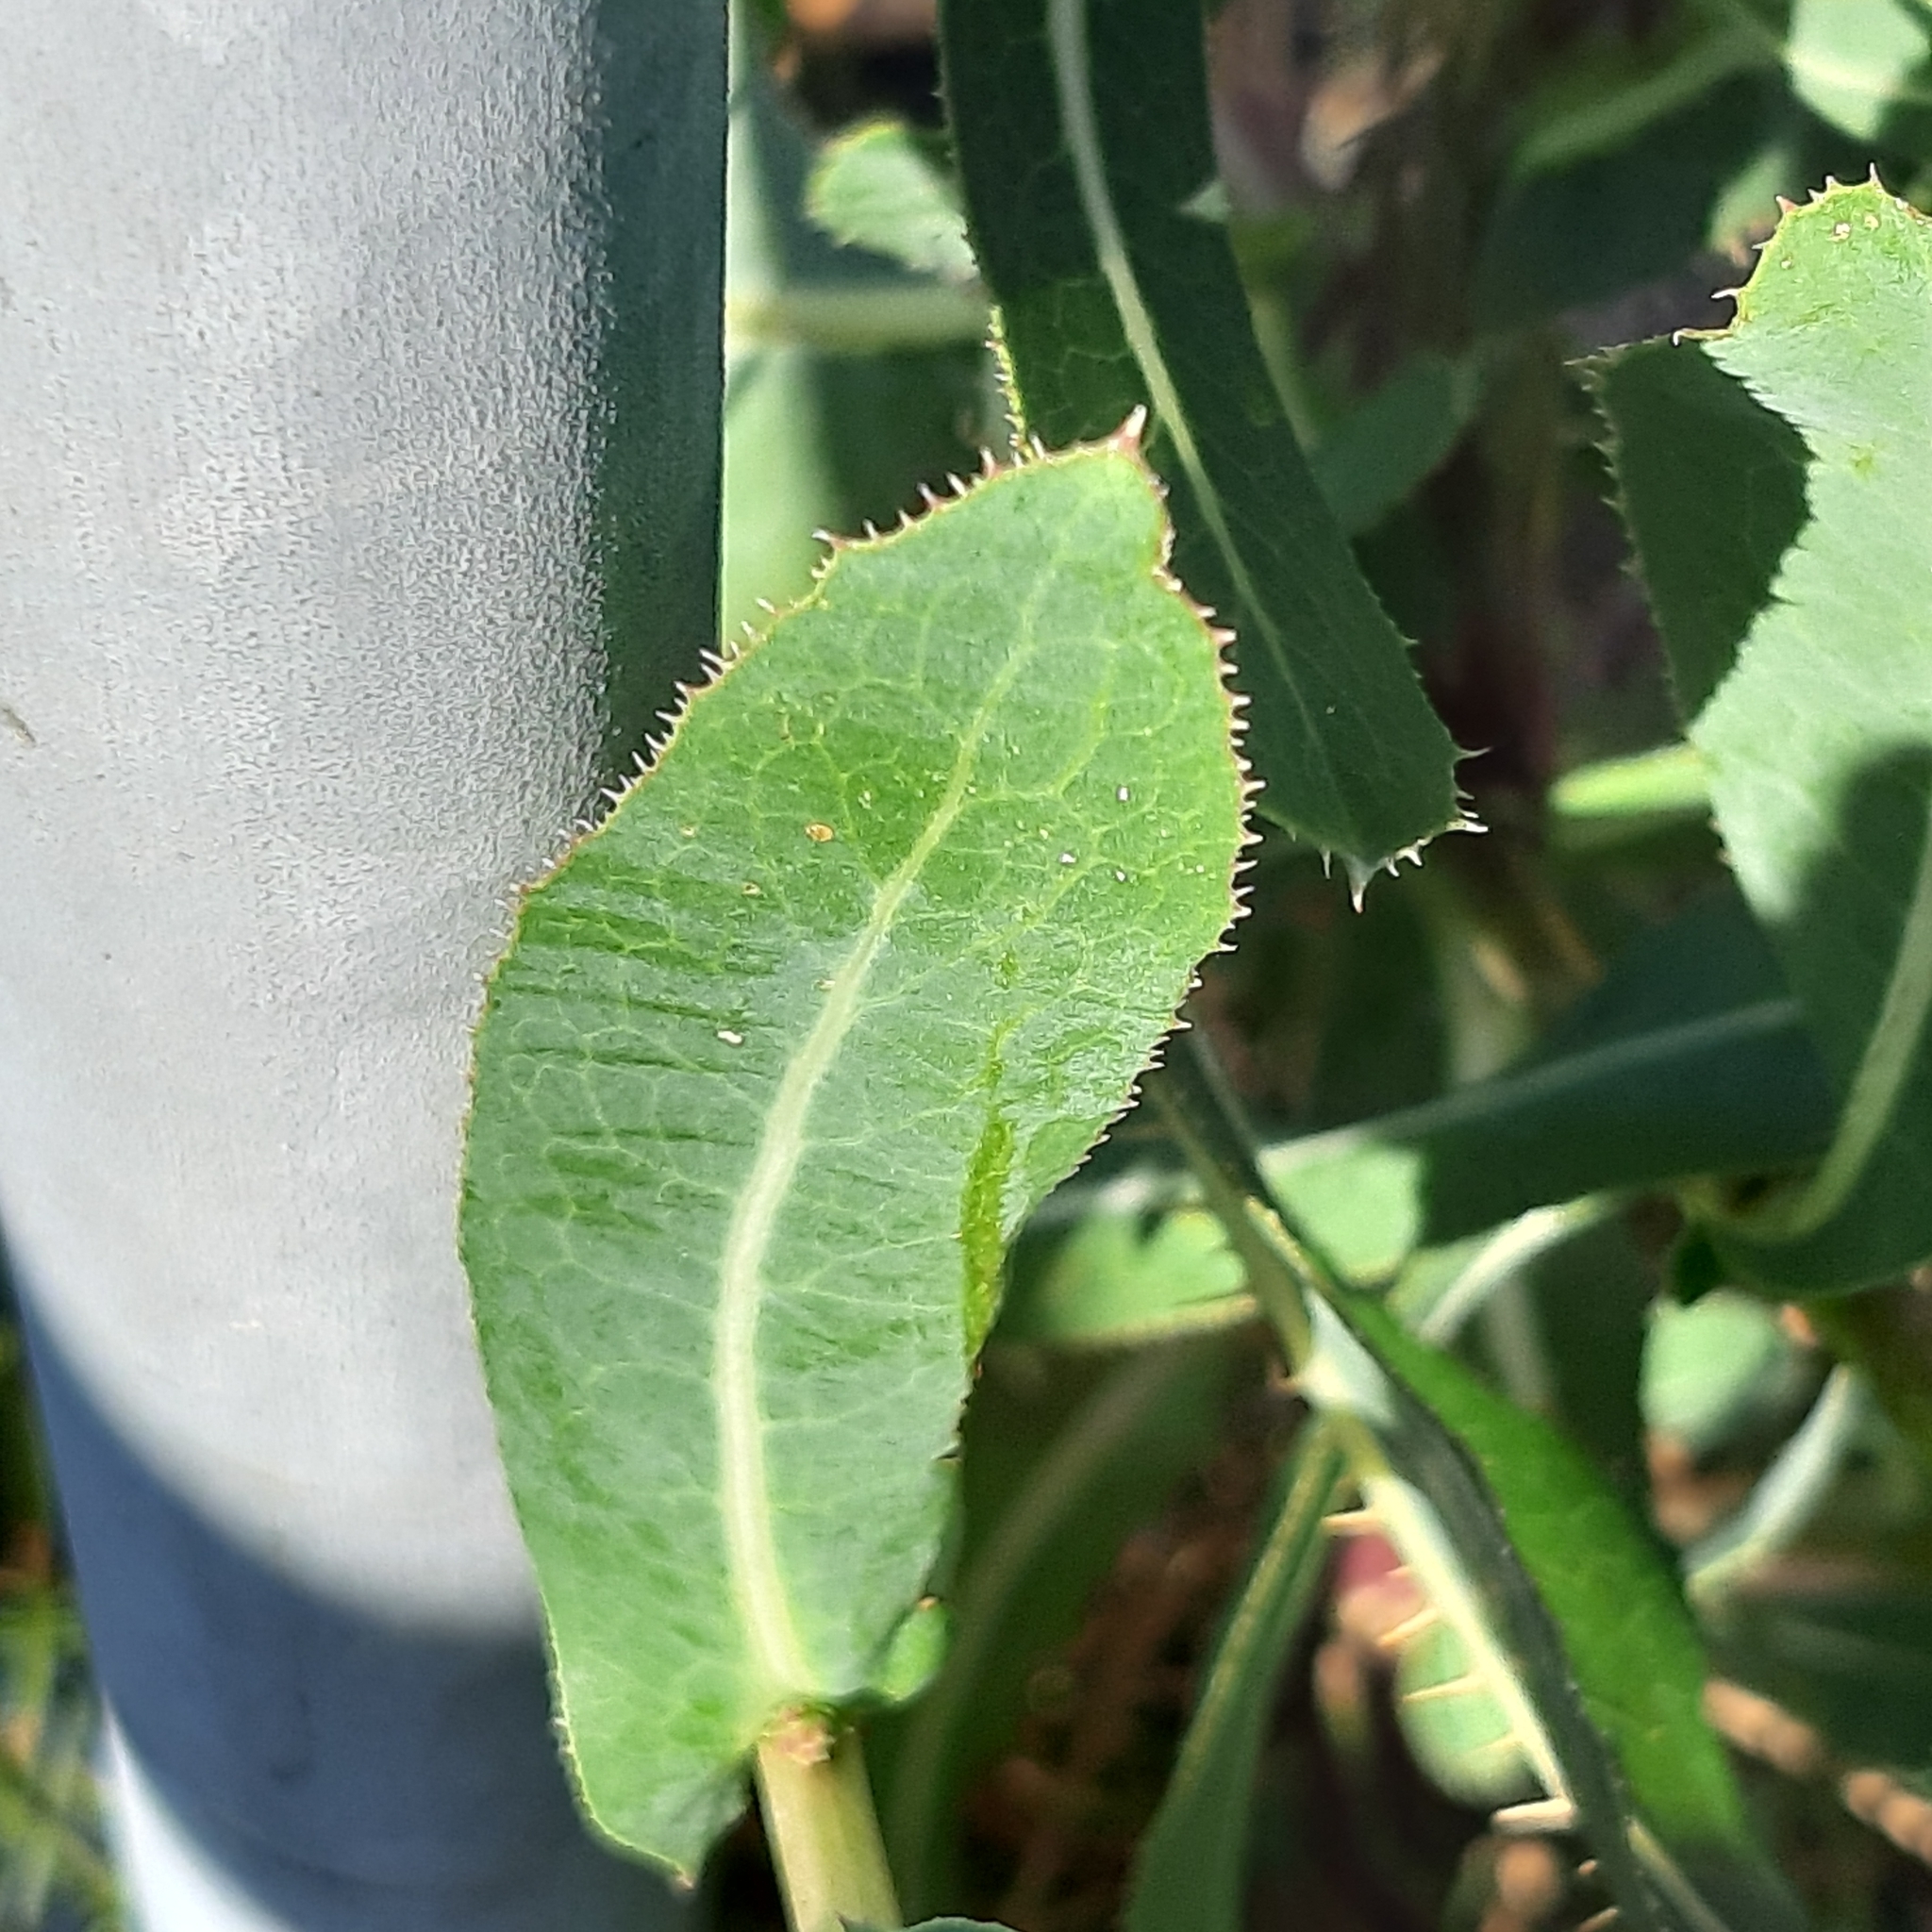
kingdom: Plantae
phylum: Tracheophyta
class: Magnoliopsida
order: Asterales
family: Asteraceae
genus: Lactuca
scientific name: Lactuca serriola
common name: Prickly lettuce
